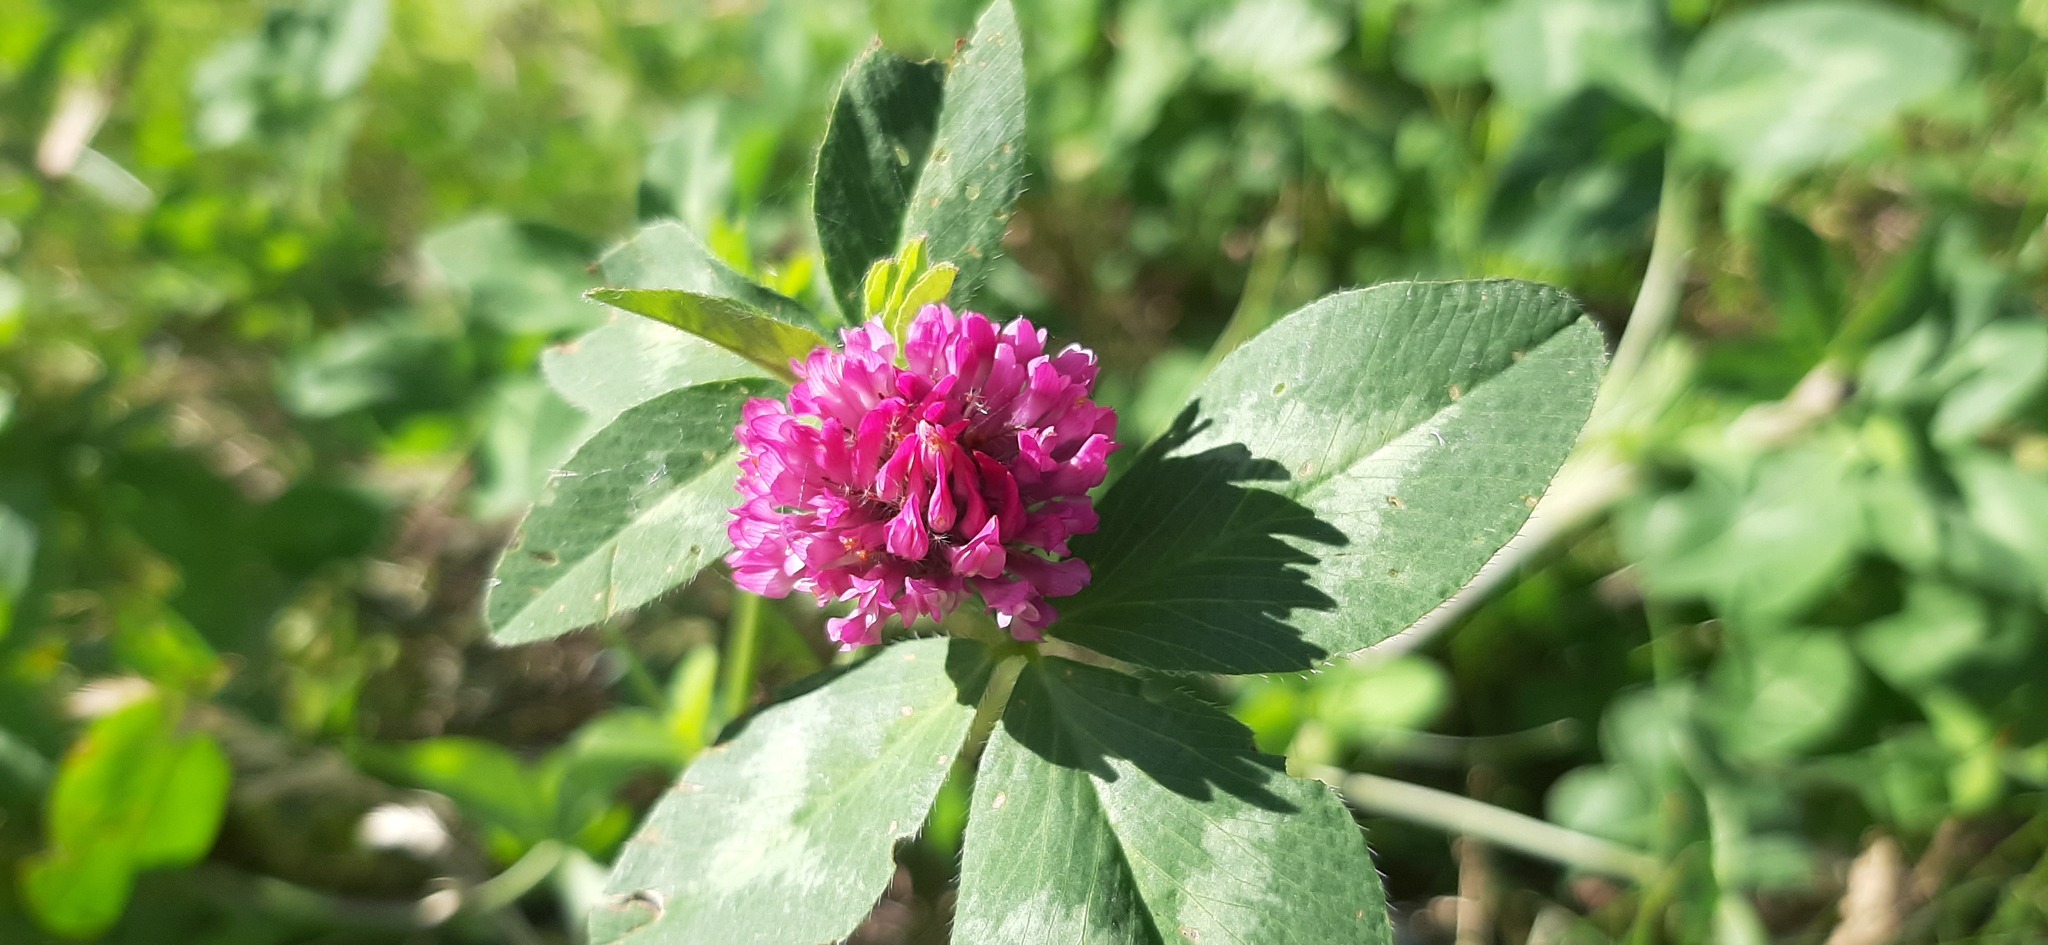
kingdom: Plantae
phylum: Tracheophyta
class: Magnoliopsida
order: Fabales
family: Fabaceae
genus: Trifolium
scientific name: Trifolium pratense
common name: Red clover
